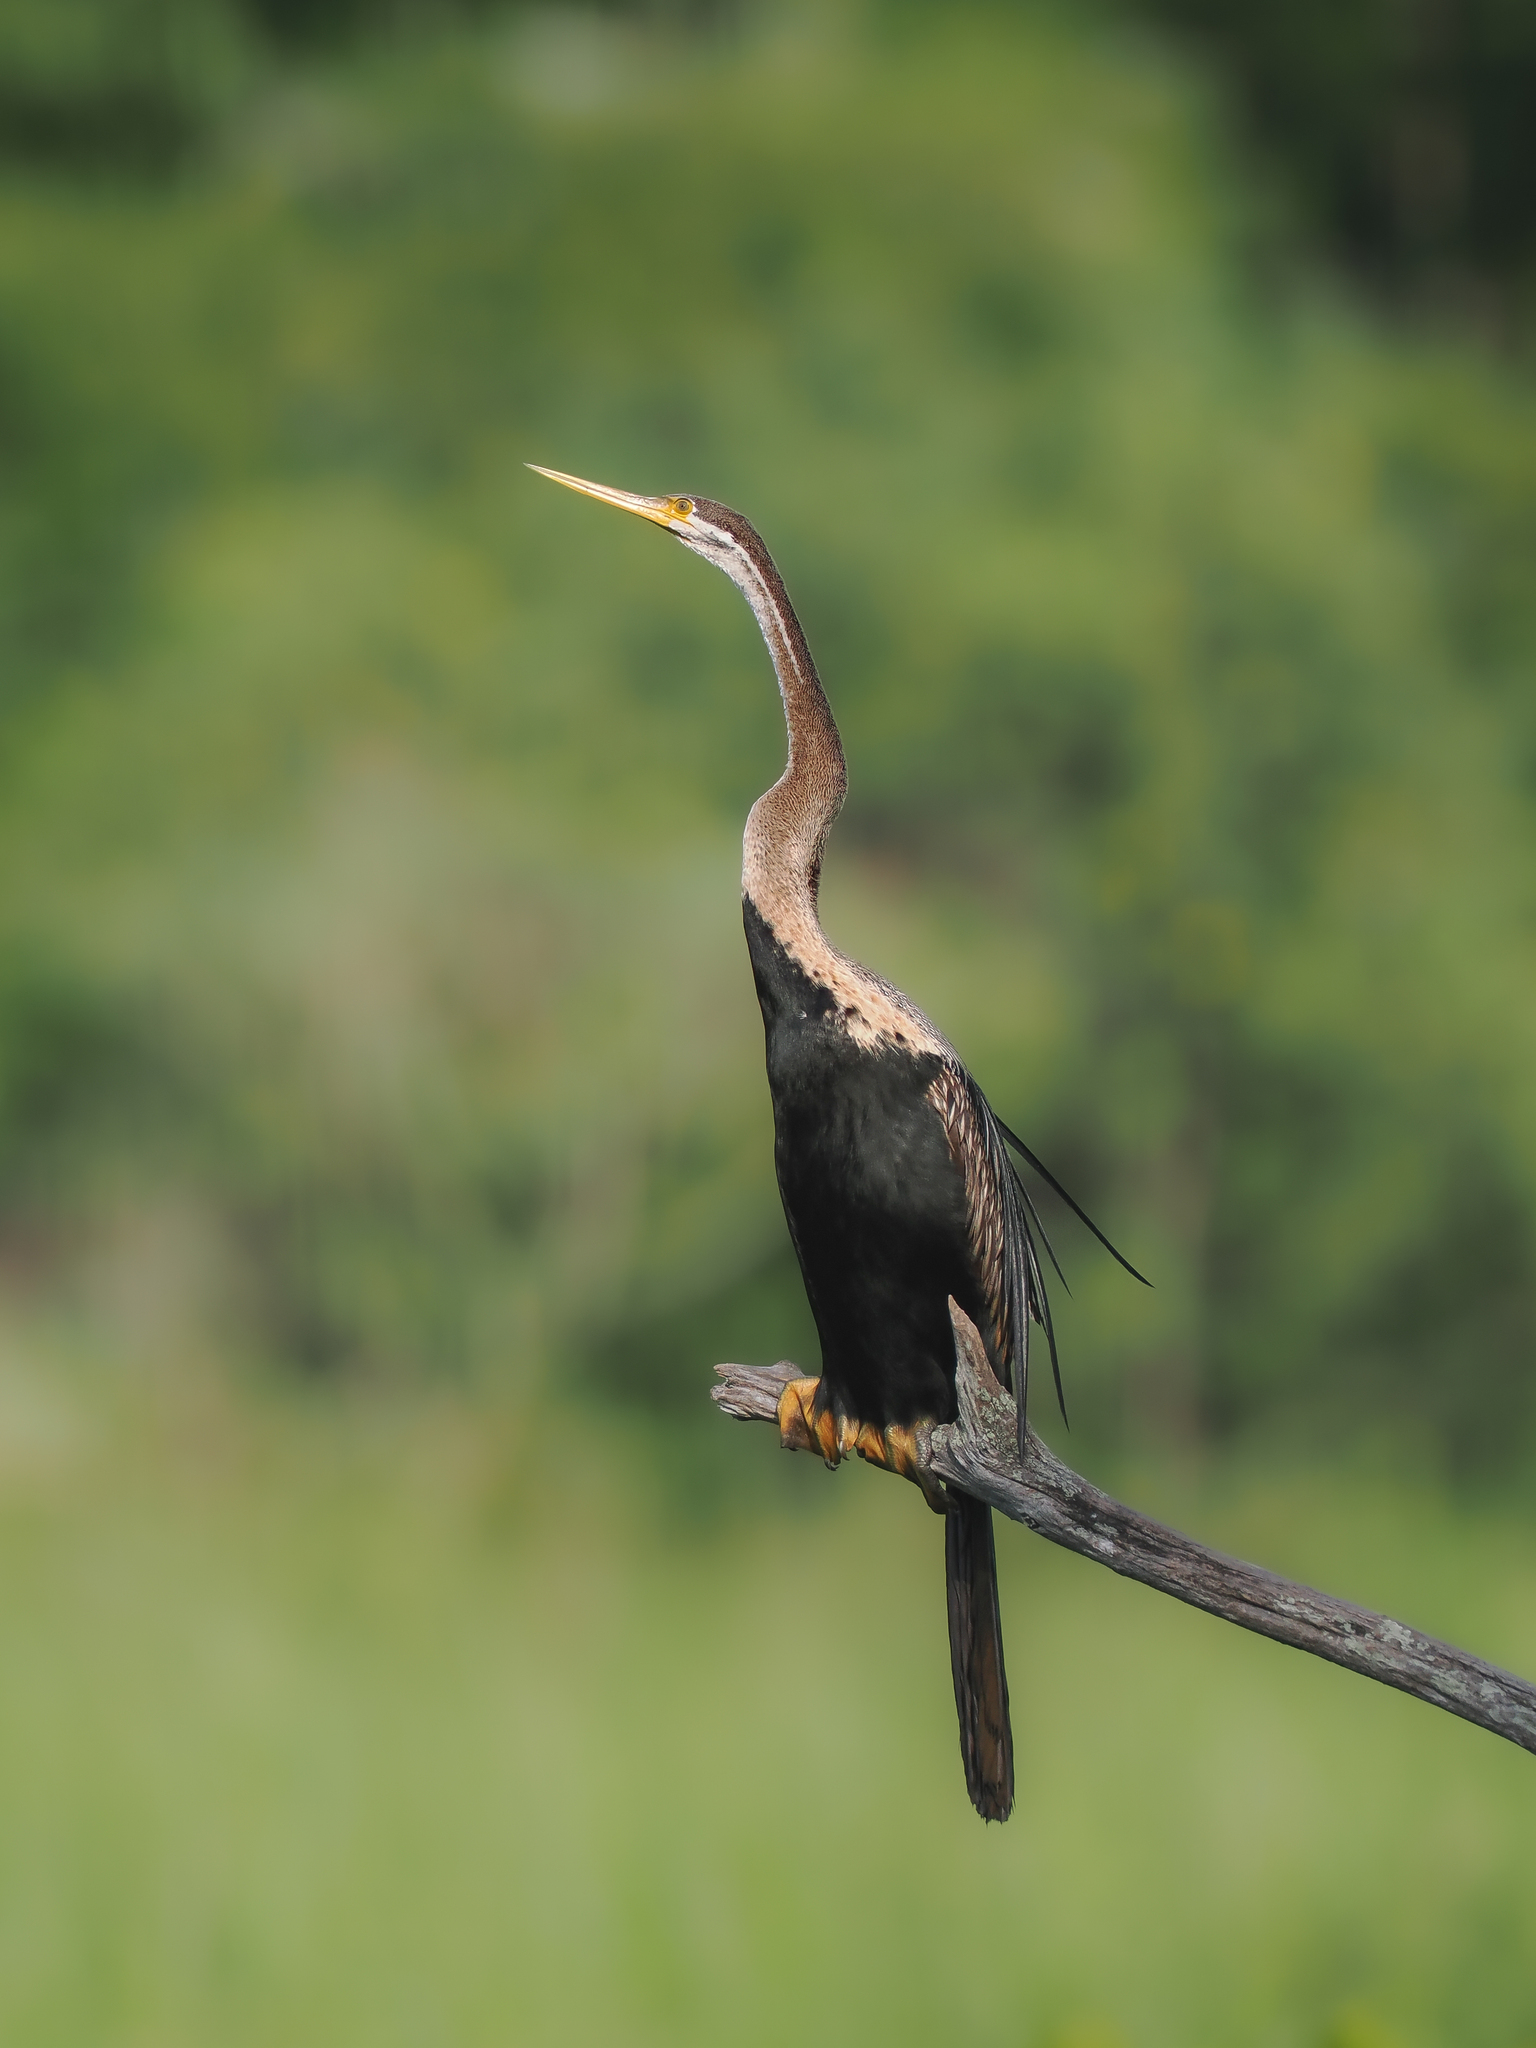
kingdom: Animalia
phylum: Chordata
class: Aves
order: Suliformes
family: Anhingidae
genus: Anhinga
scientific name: Anhinga melanogaster
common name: Oriental darter
